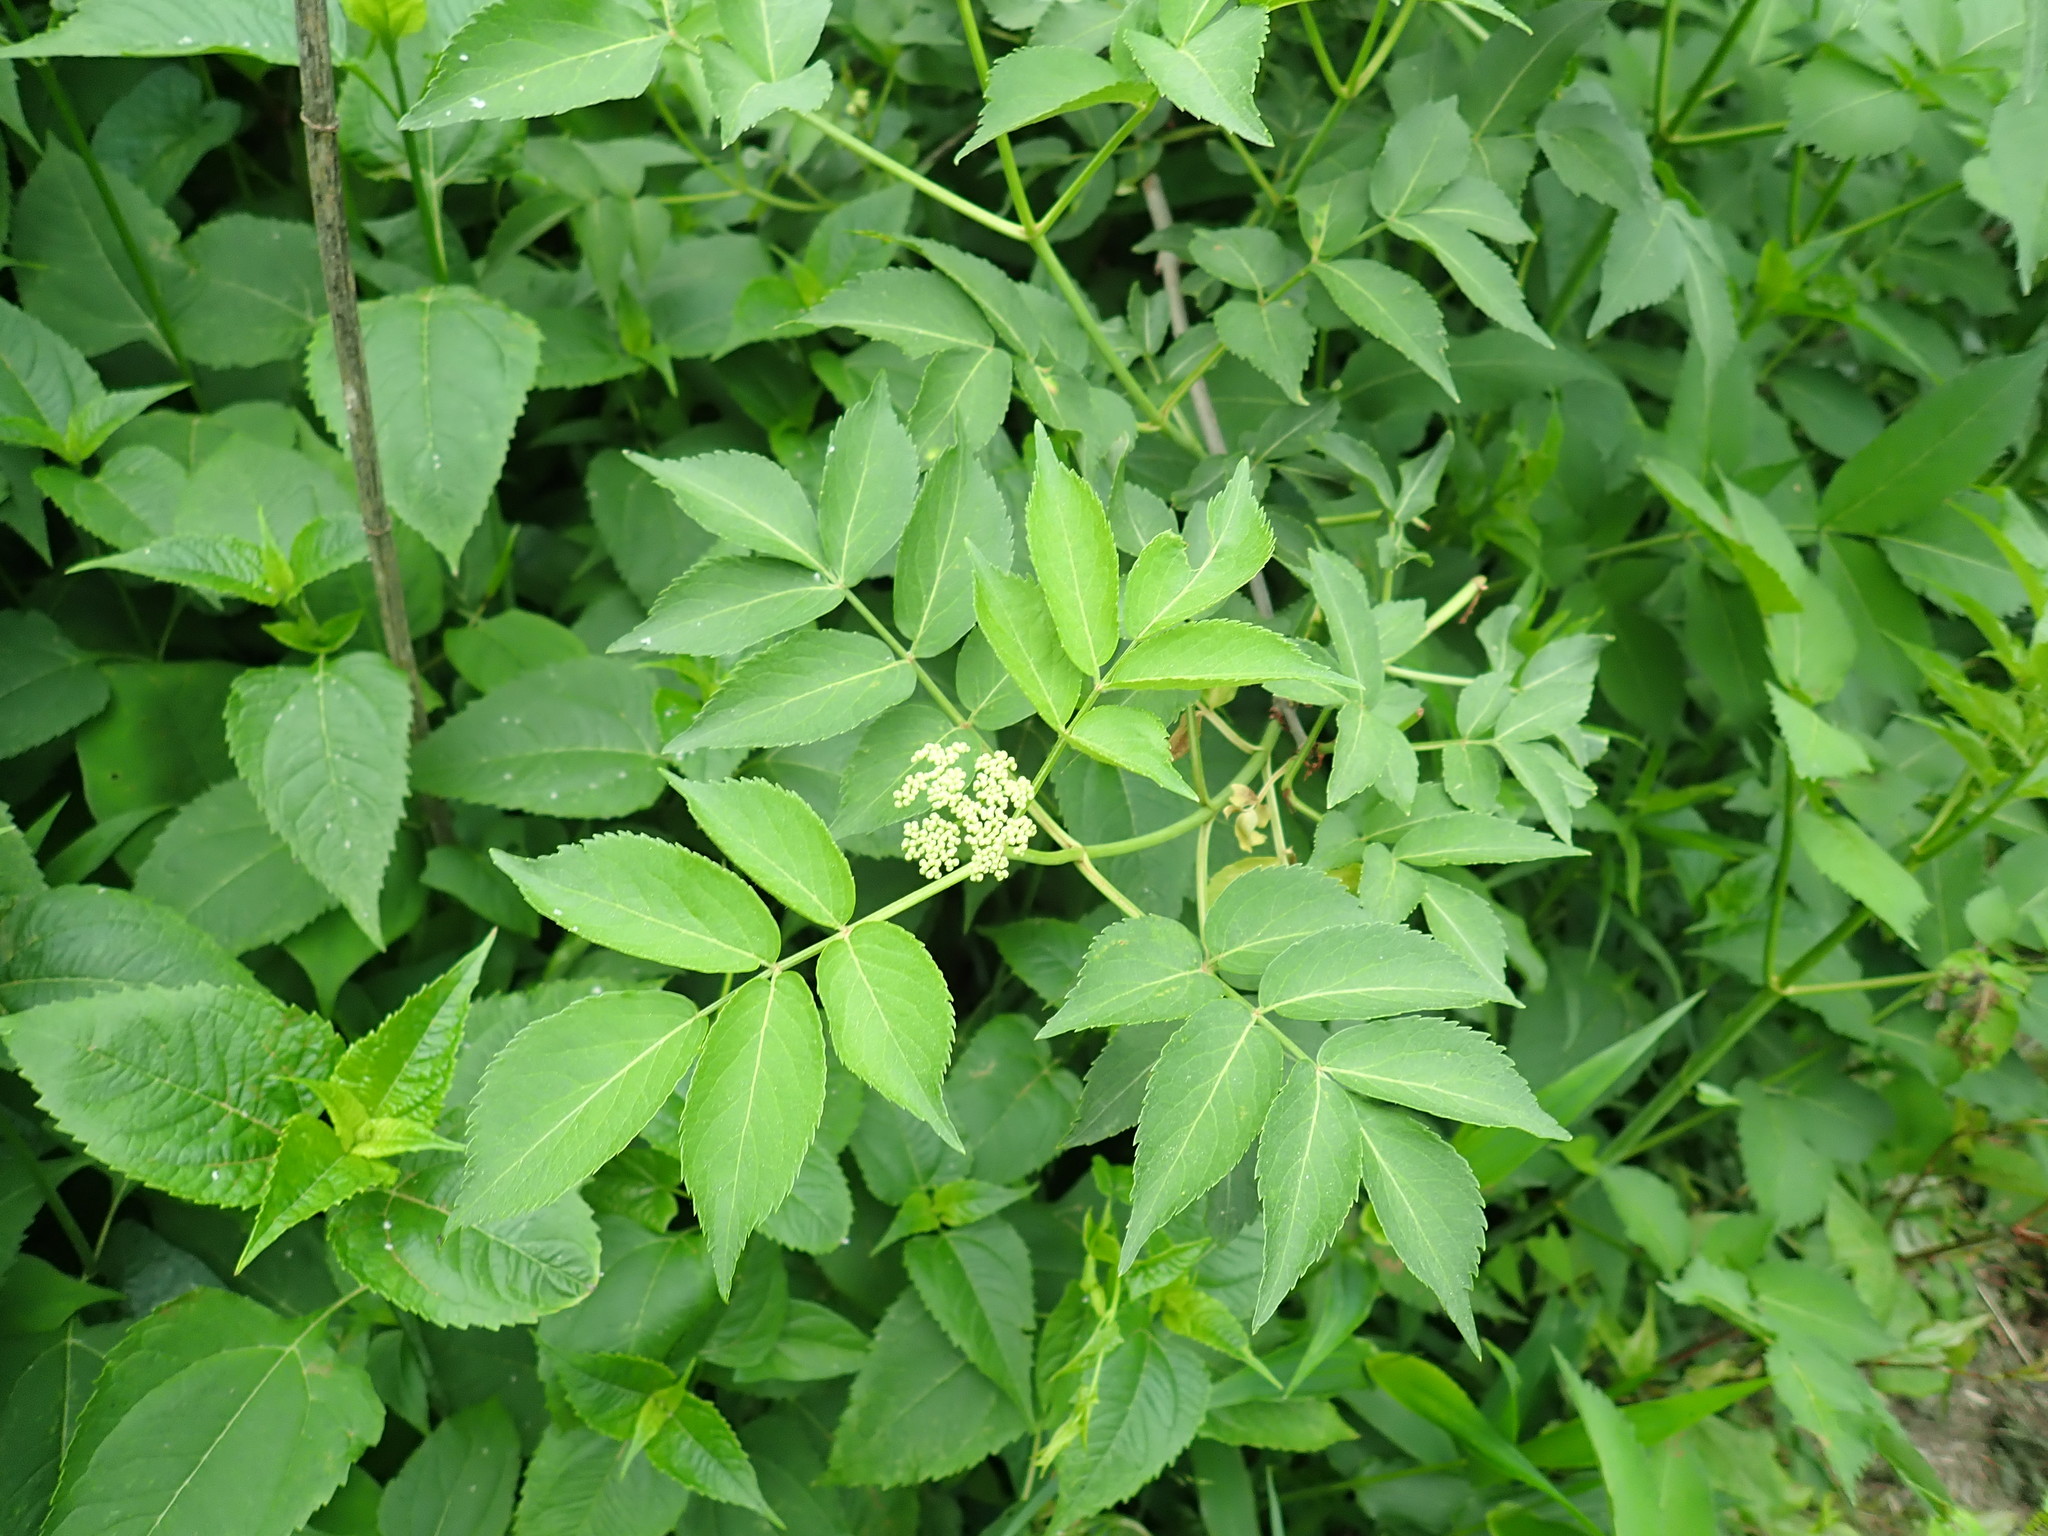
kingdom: Plantae
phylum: Tracheophyta
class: Magnoliopsida
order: Dipsacales
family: Viburnaceae
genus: Sambucus
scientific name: Sambucus canadensis
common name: American elder
